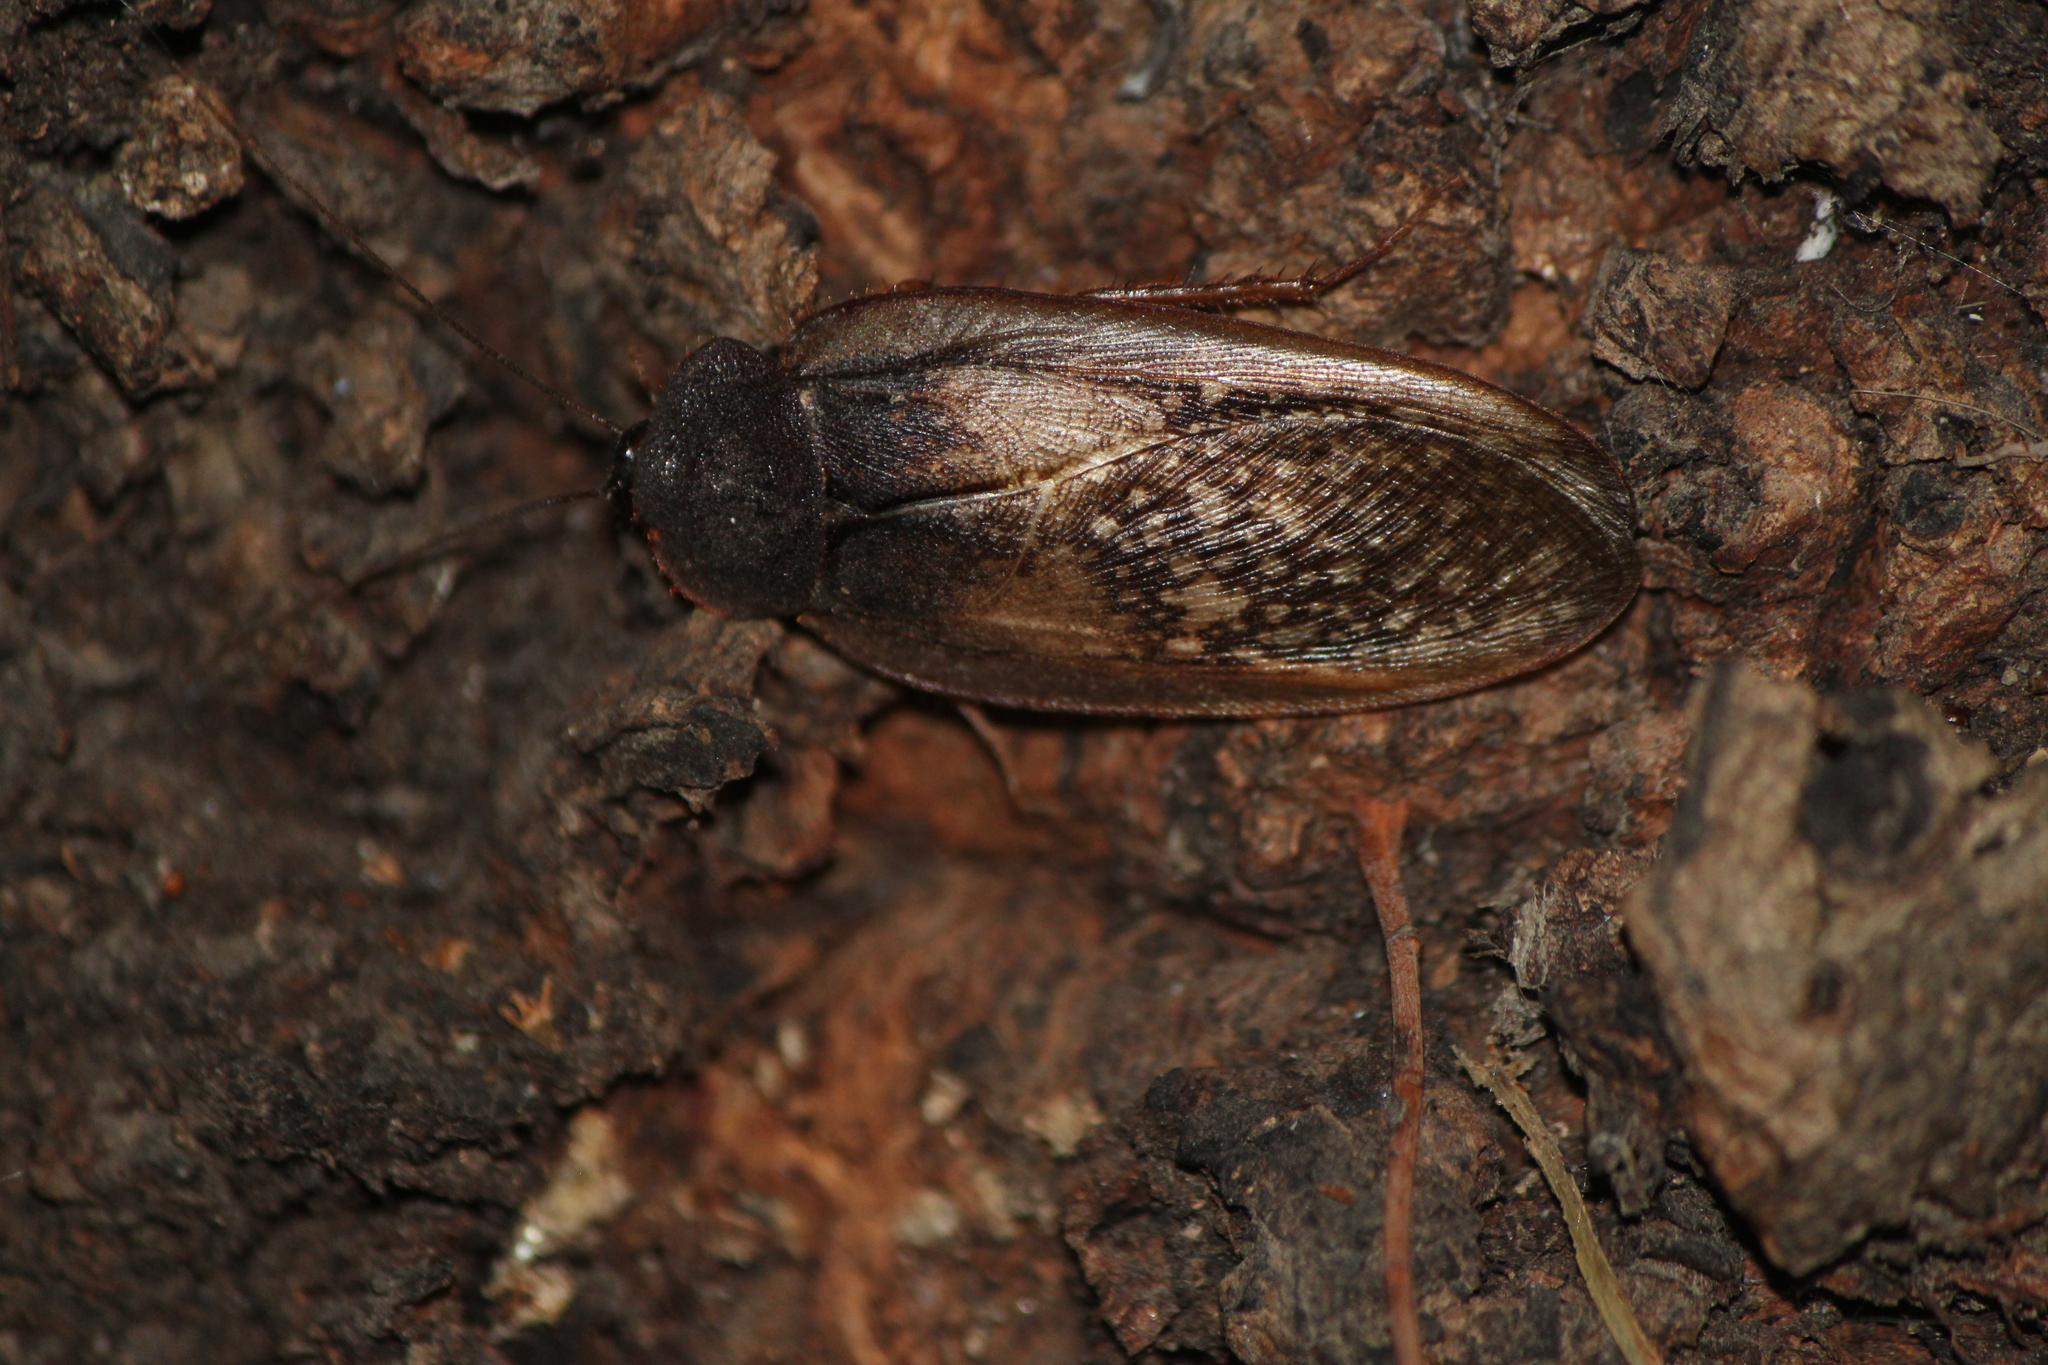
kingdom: Animalia
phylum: Arthropoda
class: Insecta
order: Blattodea
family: Corydiidae
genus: Homoeogamia
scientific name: Homoeogamia mexicana
